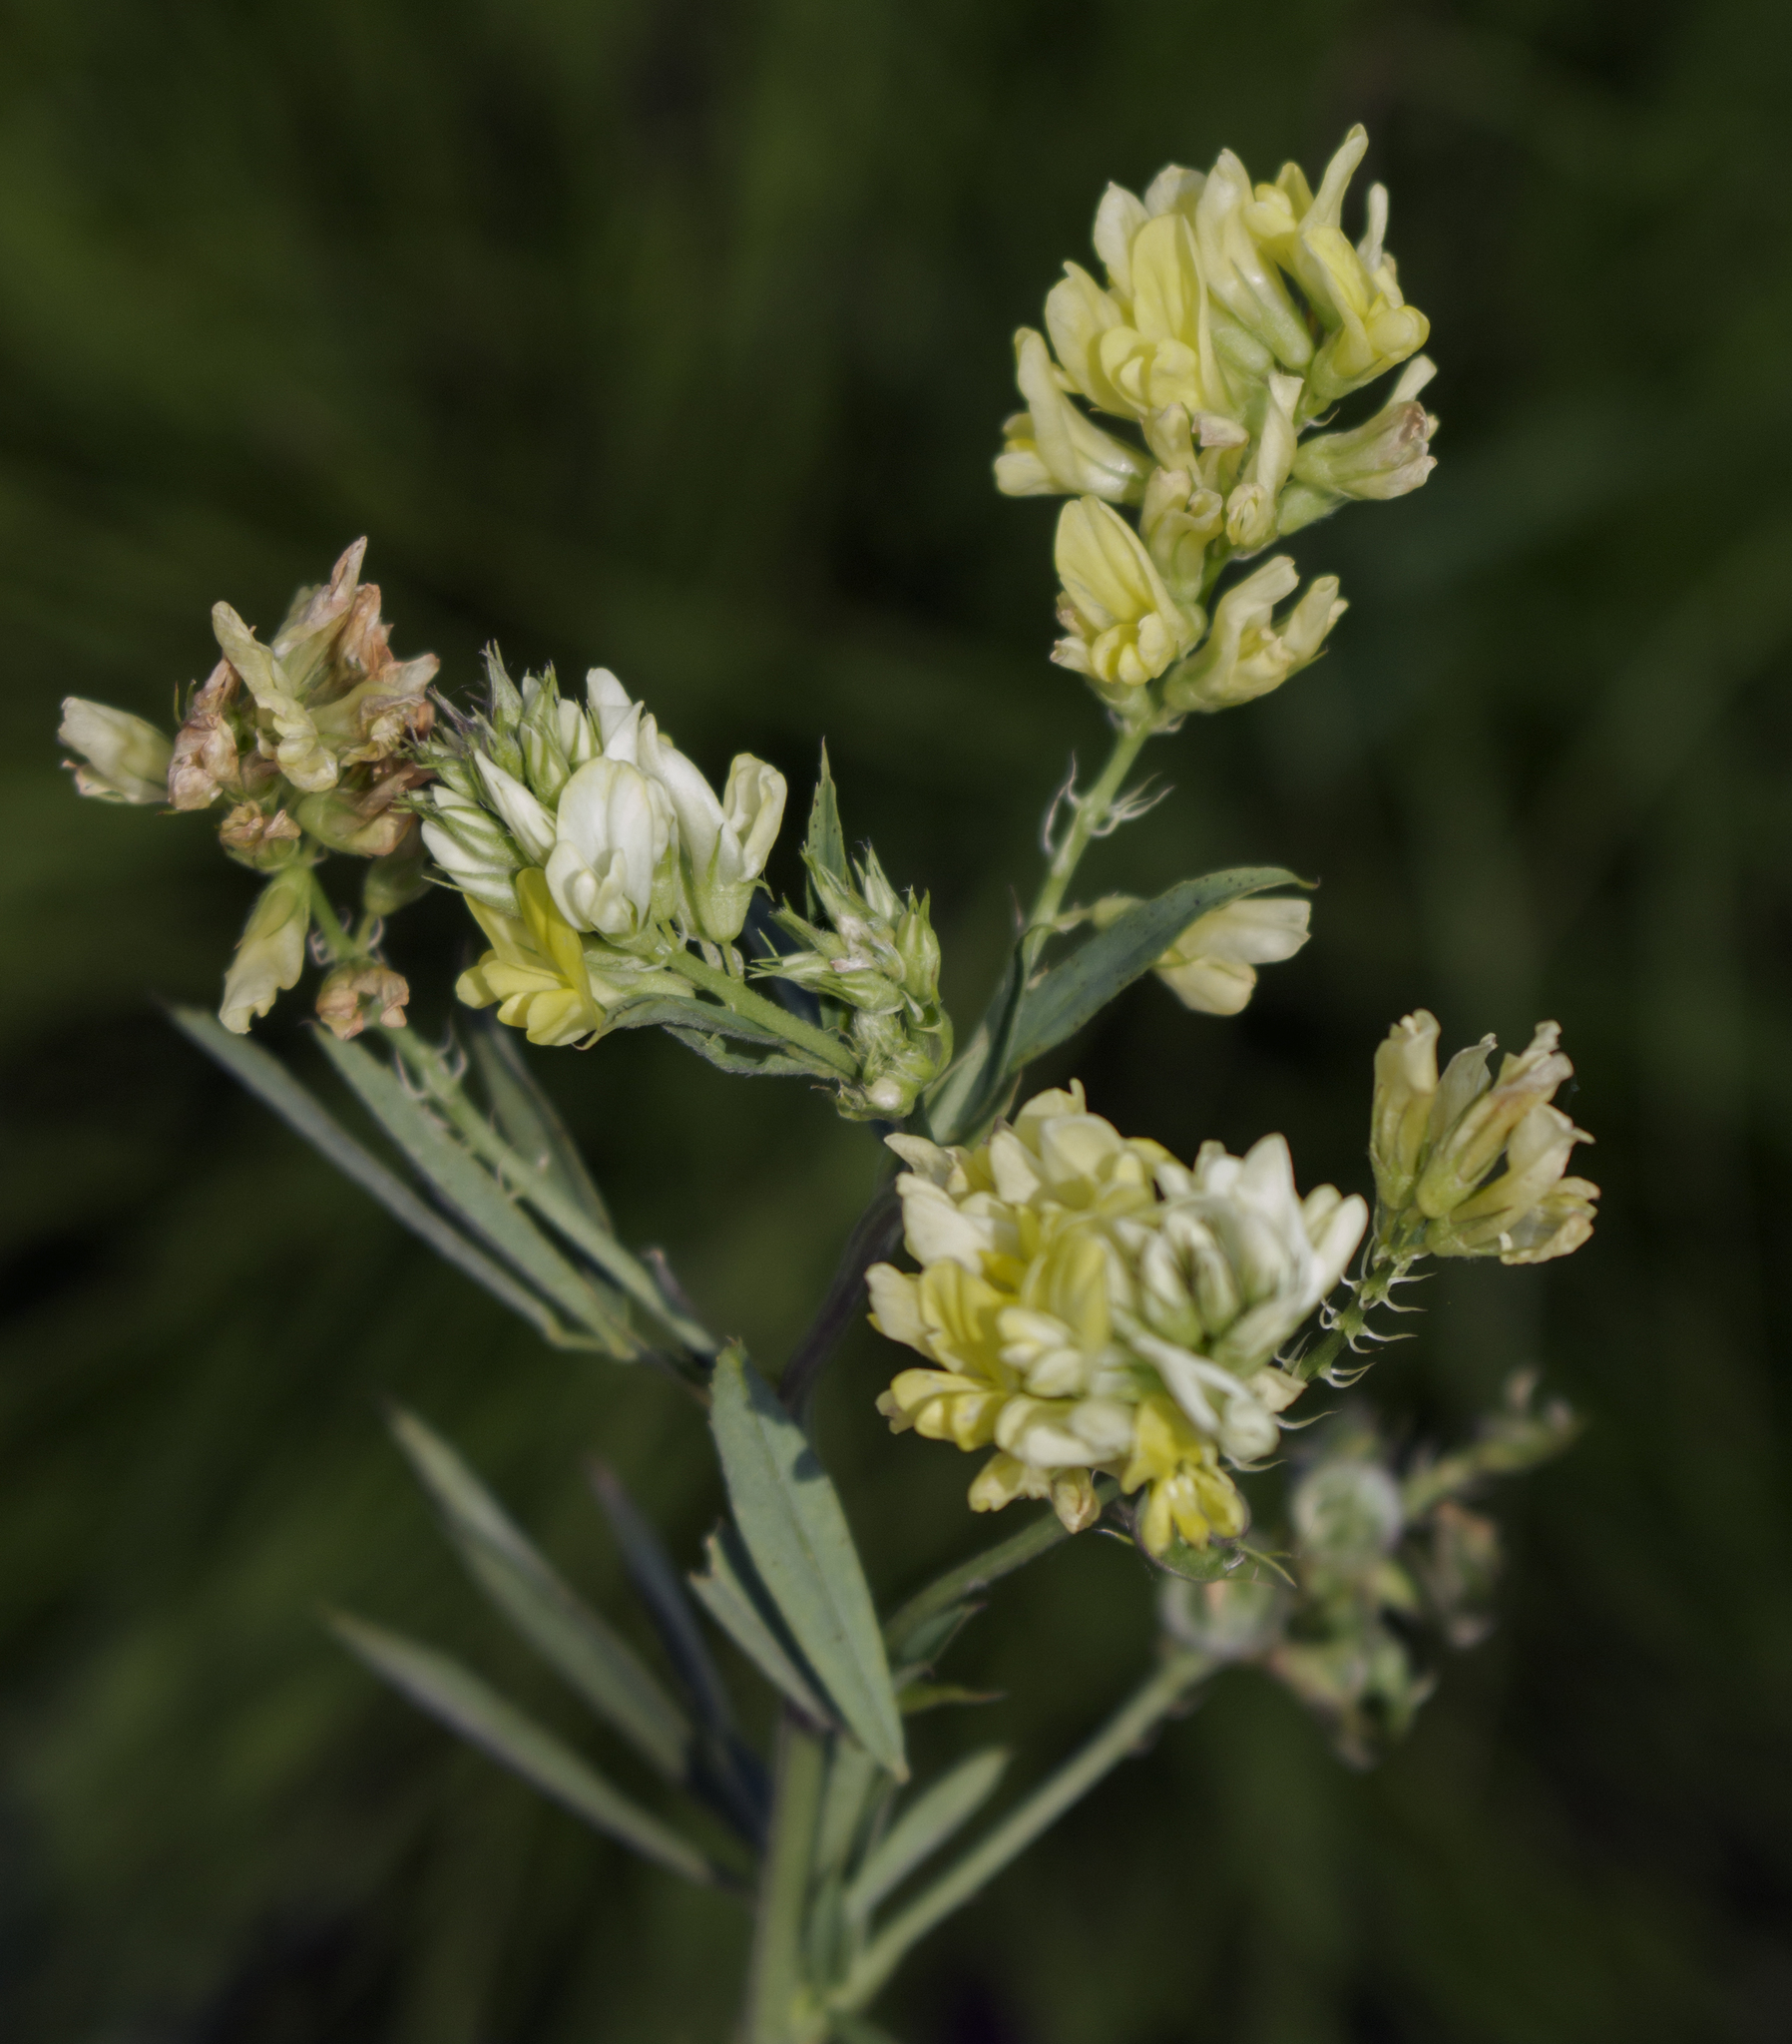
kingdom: Plantae
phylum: Tracheophyta
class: Magnoliopsida
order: Fabales
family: Fabaceae
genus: Medicago
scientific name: Medicago varia
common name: Sand lucerne
